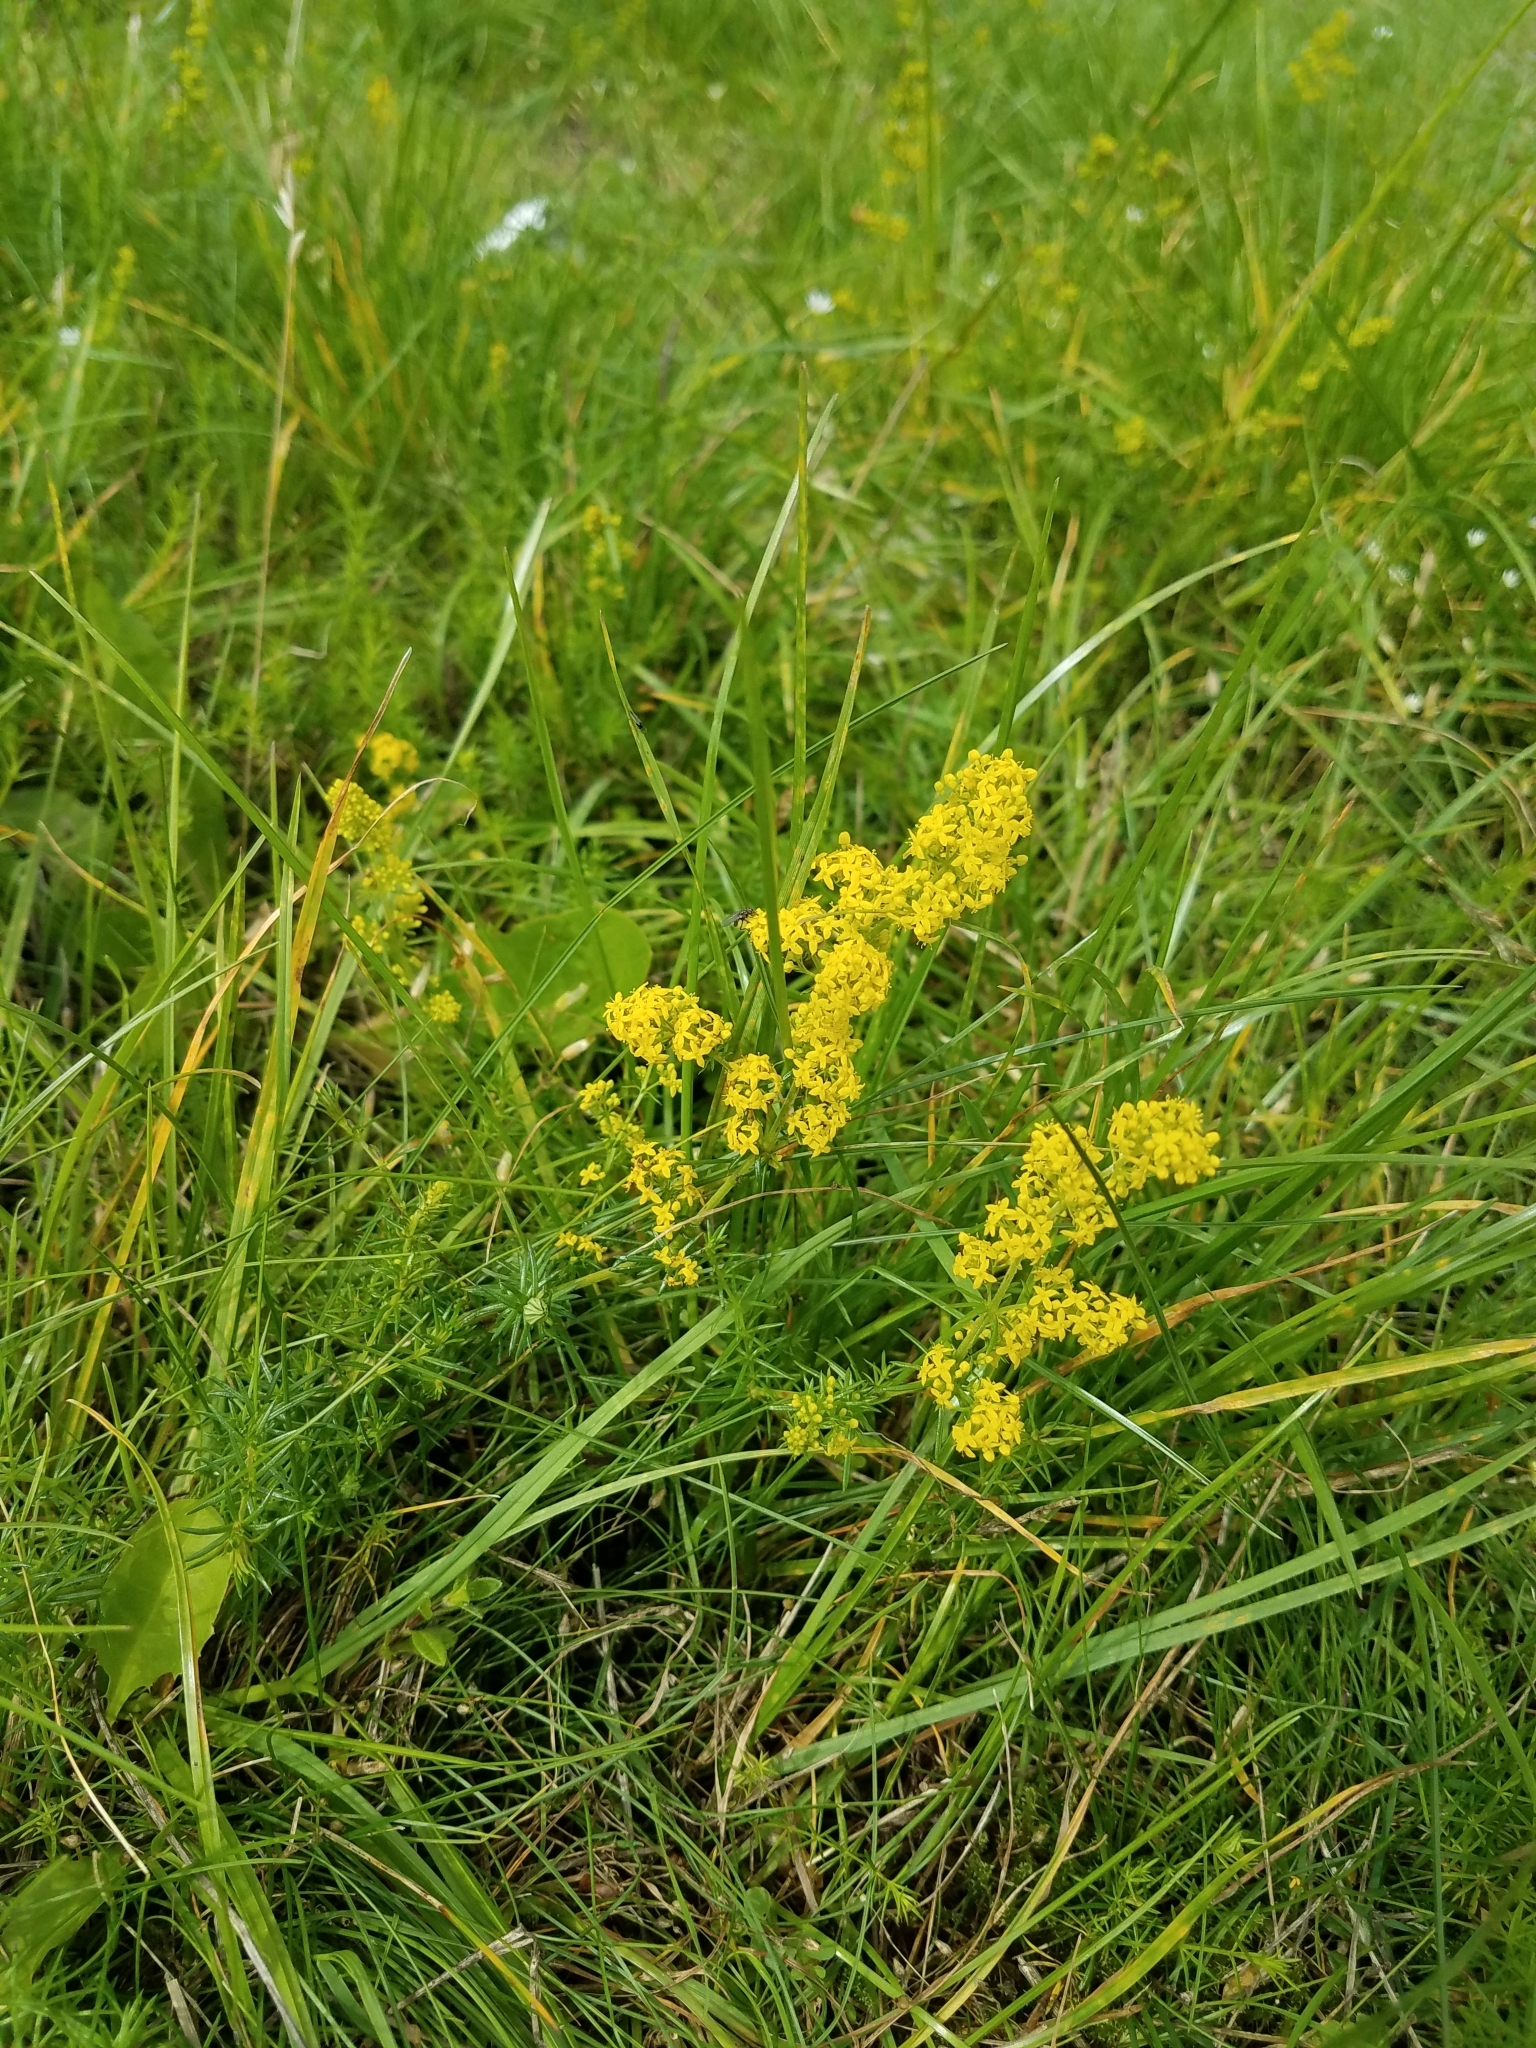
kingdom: Plantae
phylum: Tracheophyta
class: Magnoliopsida
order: Gentianales
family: Rubiaceae
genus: Galium
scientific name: Galium verum
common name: Lady's bedstraw
